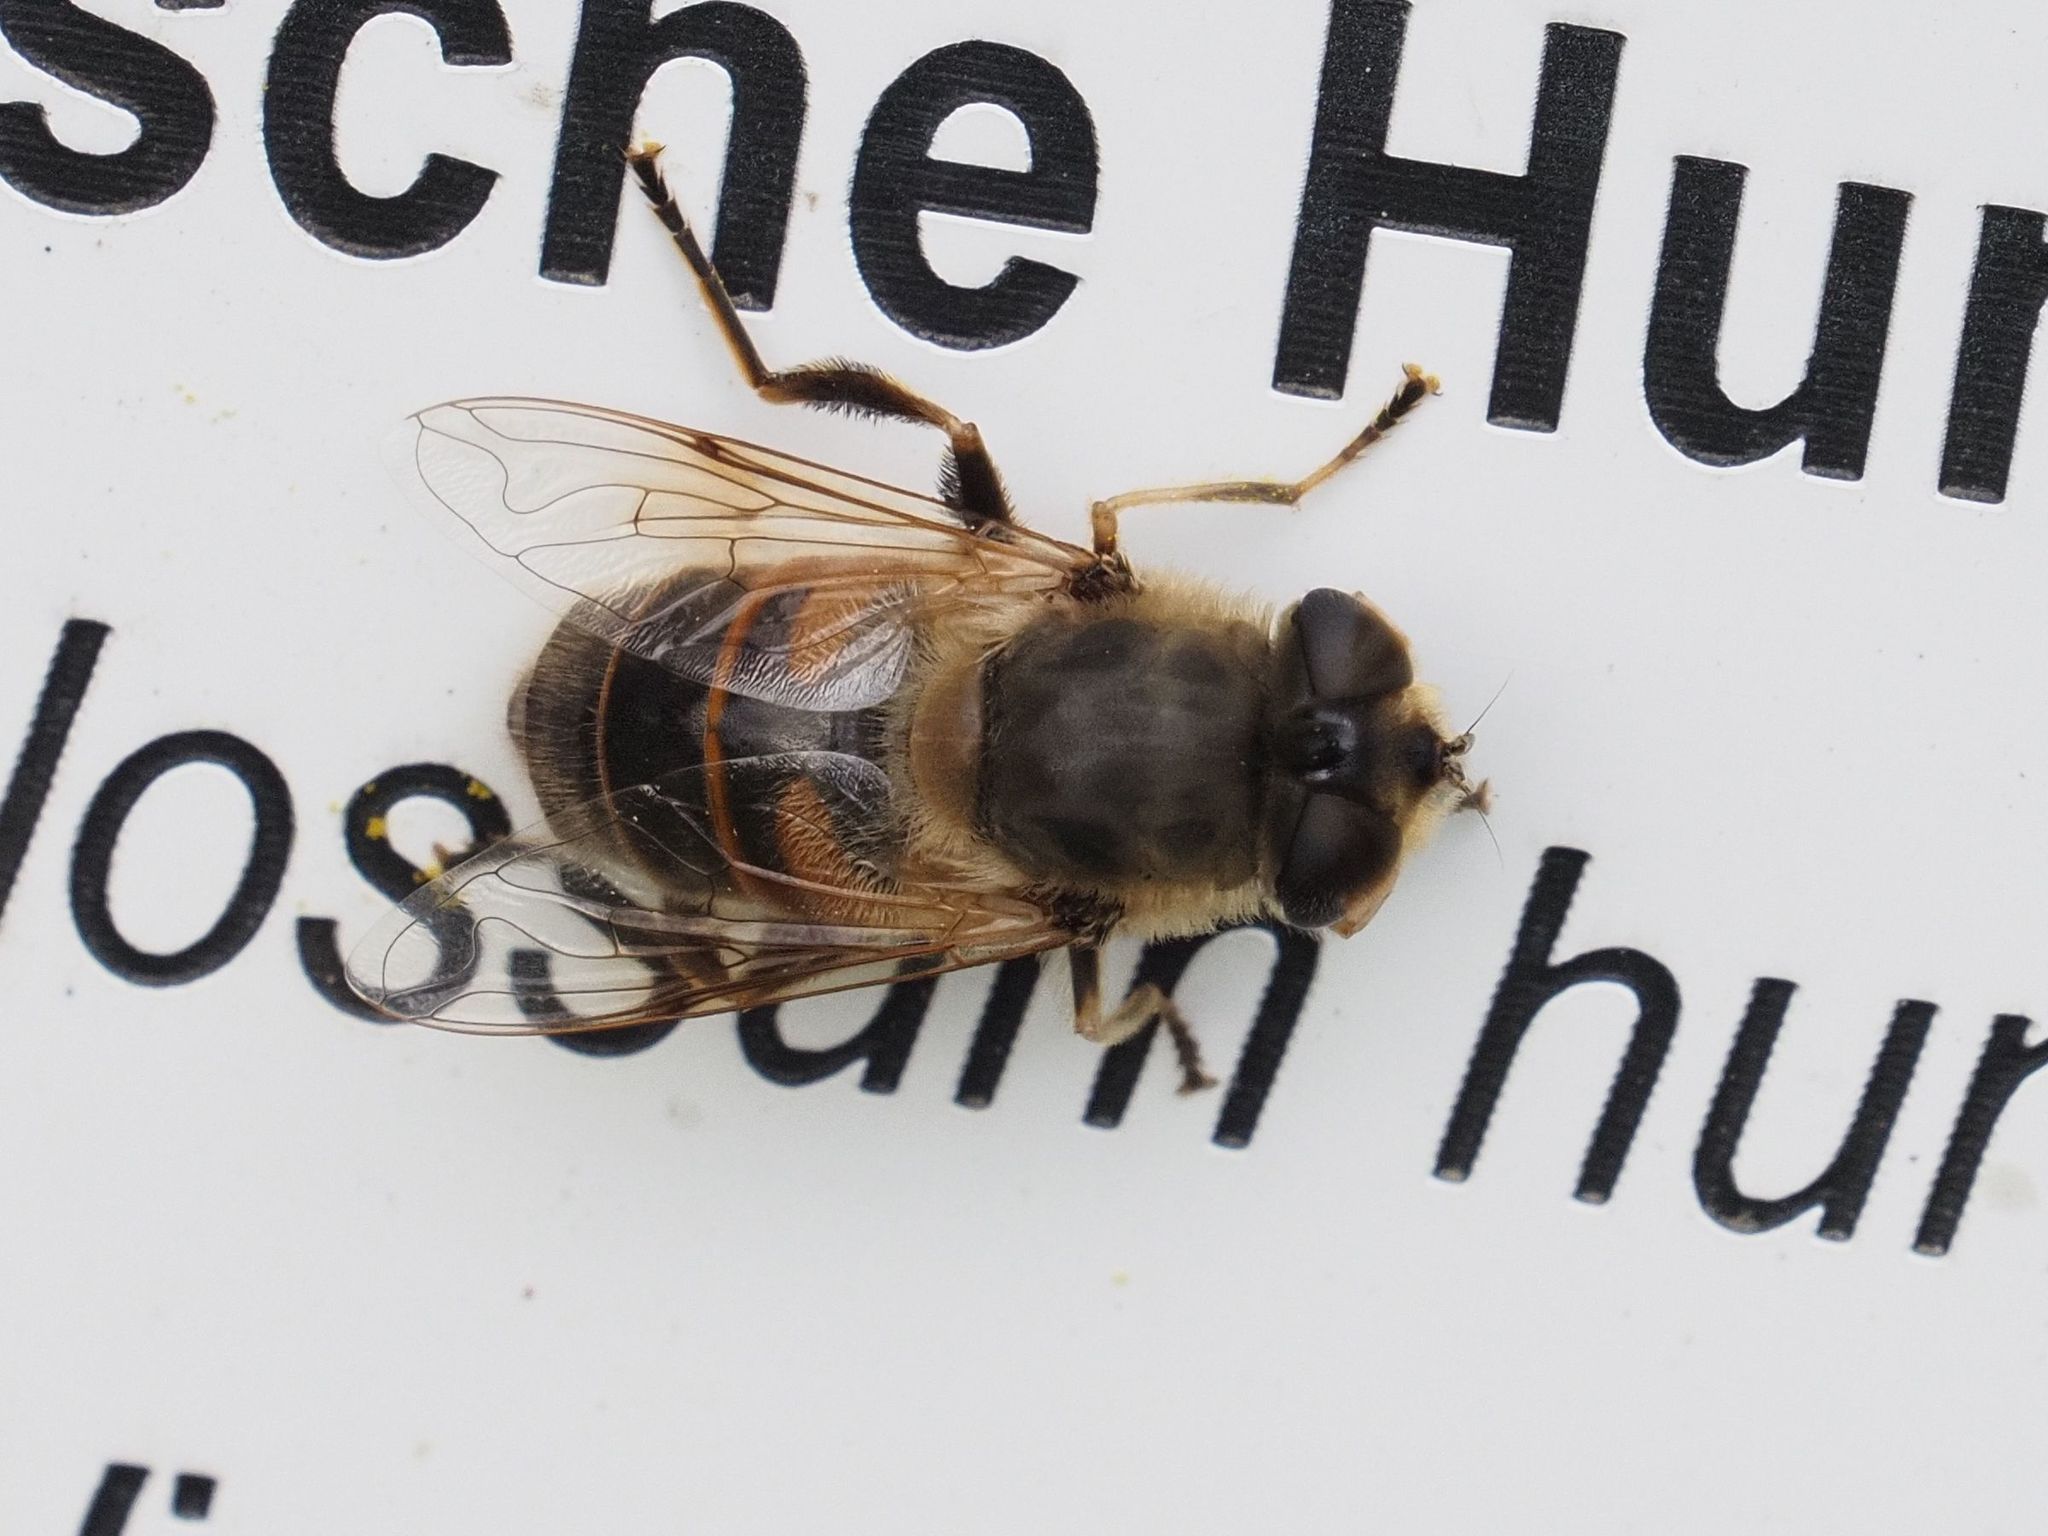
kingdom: Animalia
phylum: Arthropoda
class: Insecta
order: Diptera
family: Syrphidae
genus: Eristalis
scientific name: Eristalis tenax
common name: Drone fly
